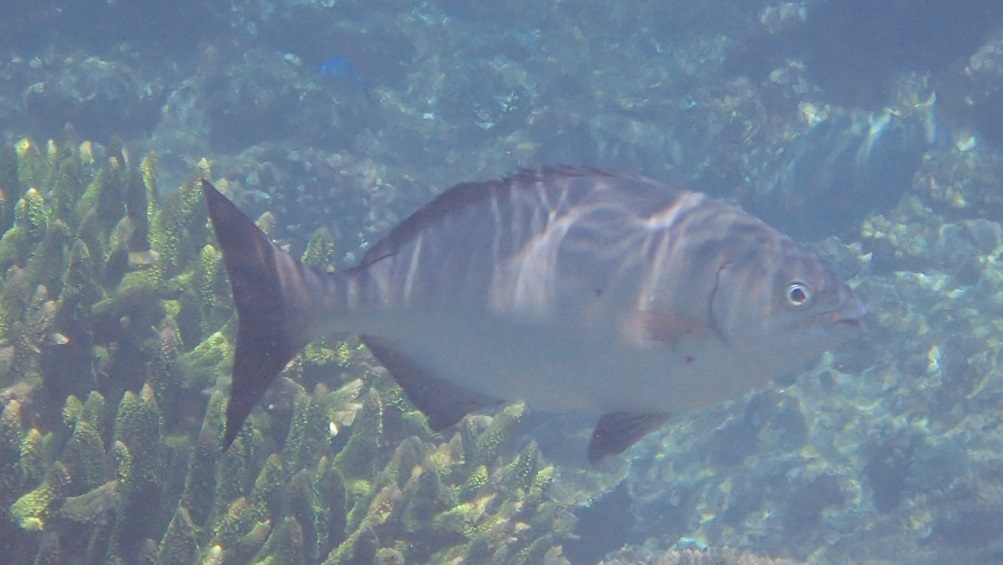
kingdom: Animalia
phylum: Chordata
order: Perciformes
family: Kyphosidae
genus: Kyphosus
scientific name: Kyphosus bigibbus
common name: Brown chub
